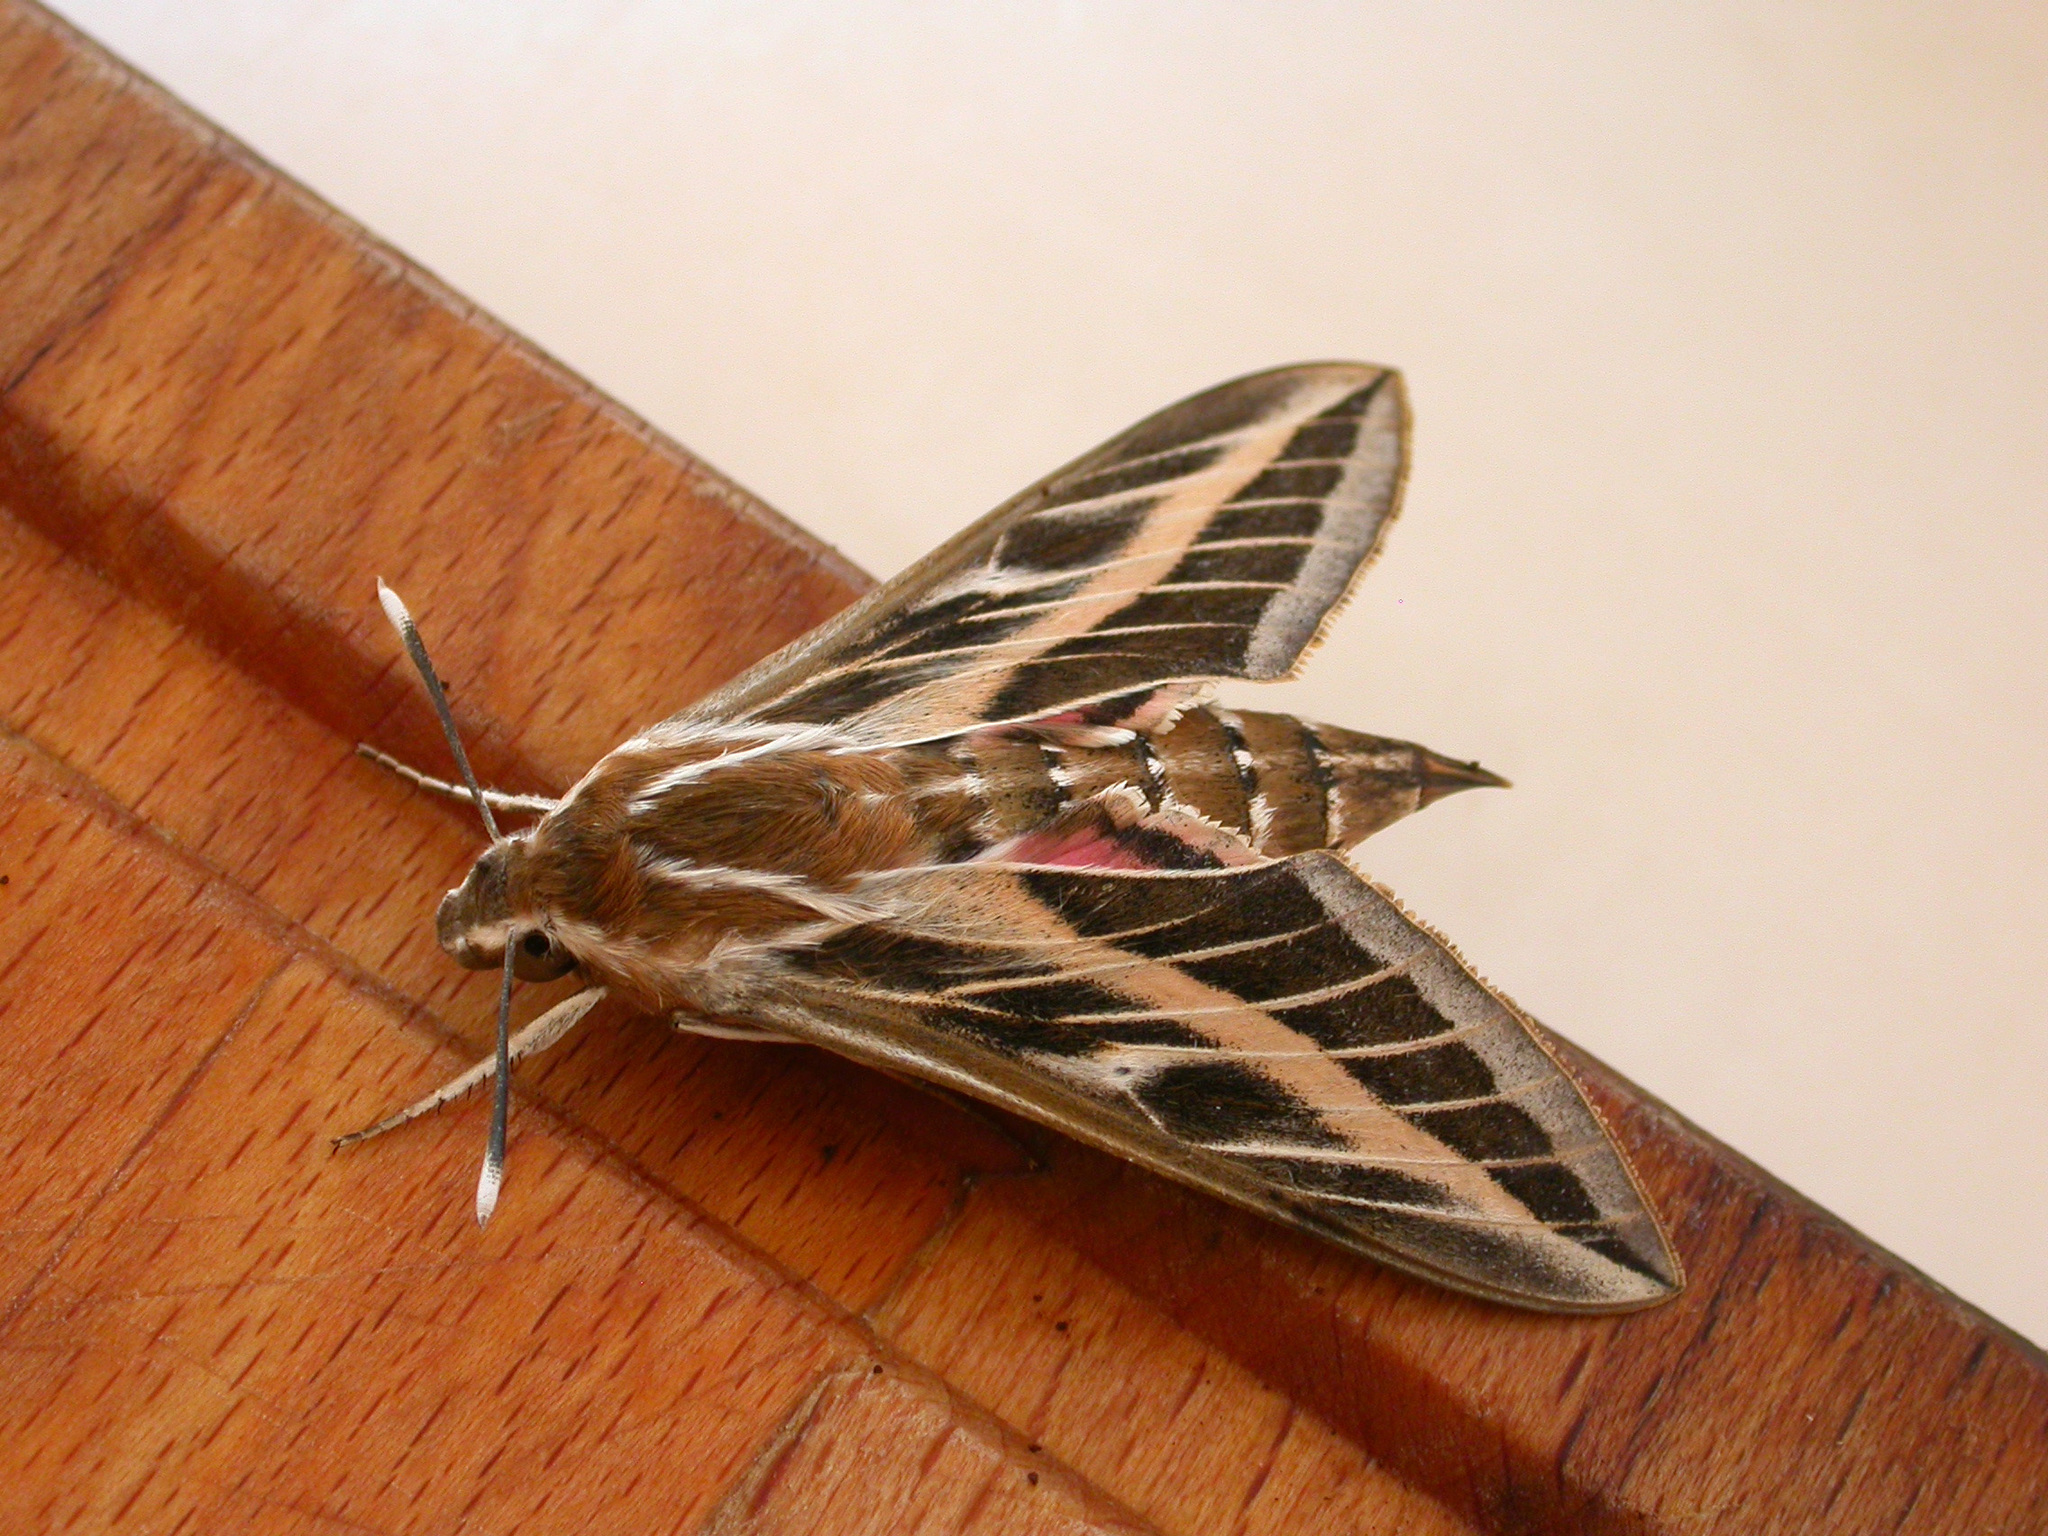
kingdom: Animalia
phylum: Arthropoda
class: Insecta
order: Lepidoptera
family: Sphingidae
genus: Hyles
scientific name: Hyles livornica
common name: Striped hawk-moth
